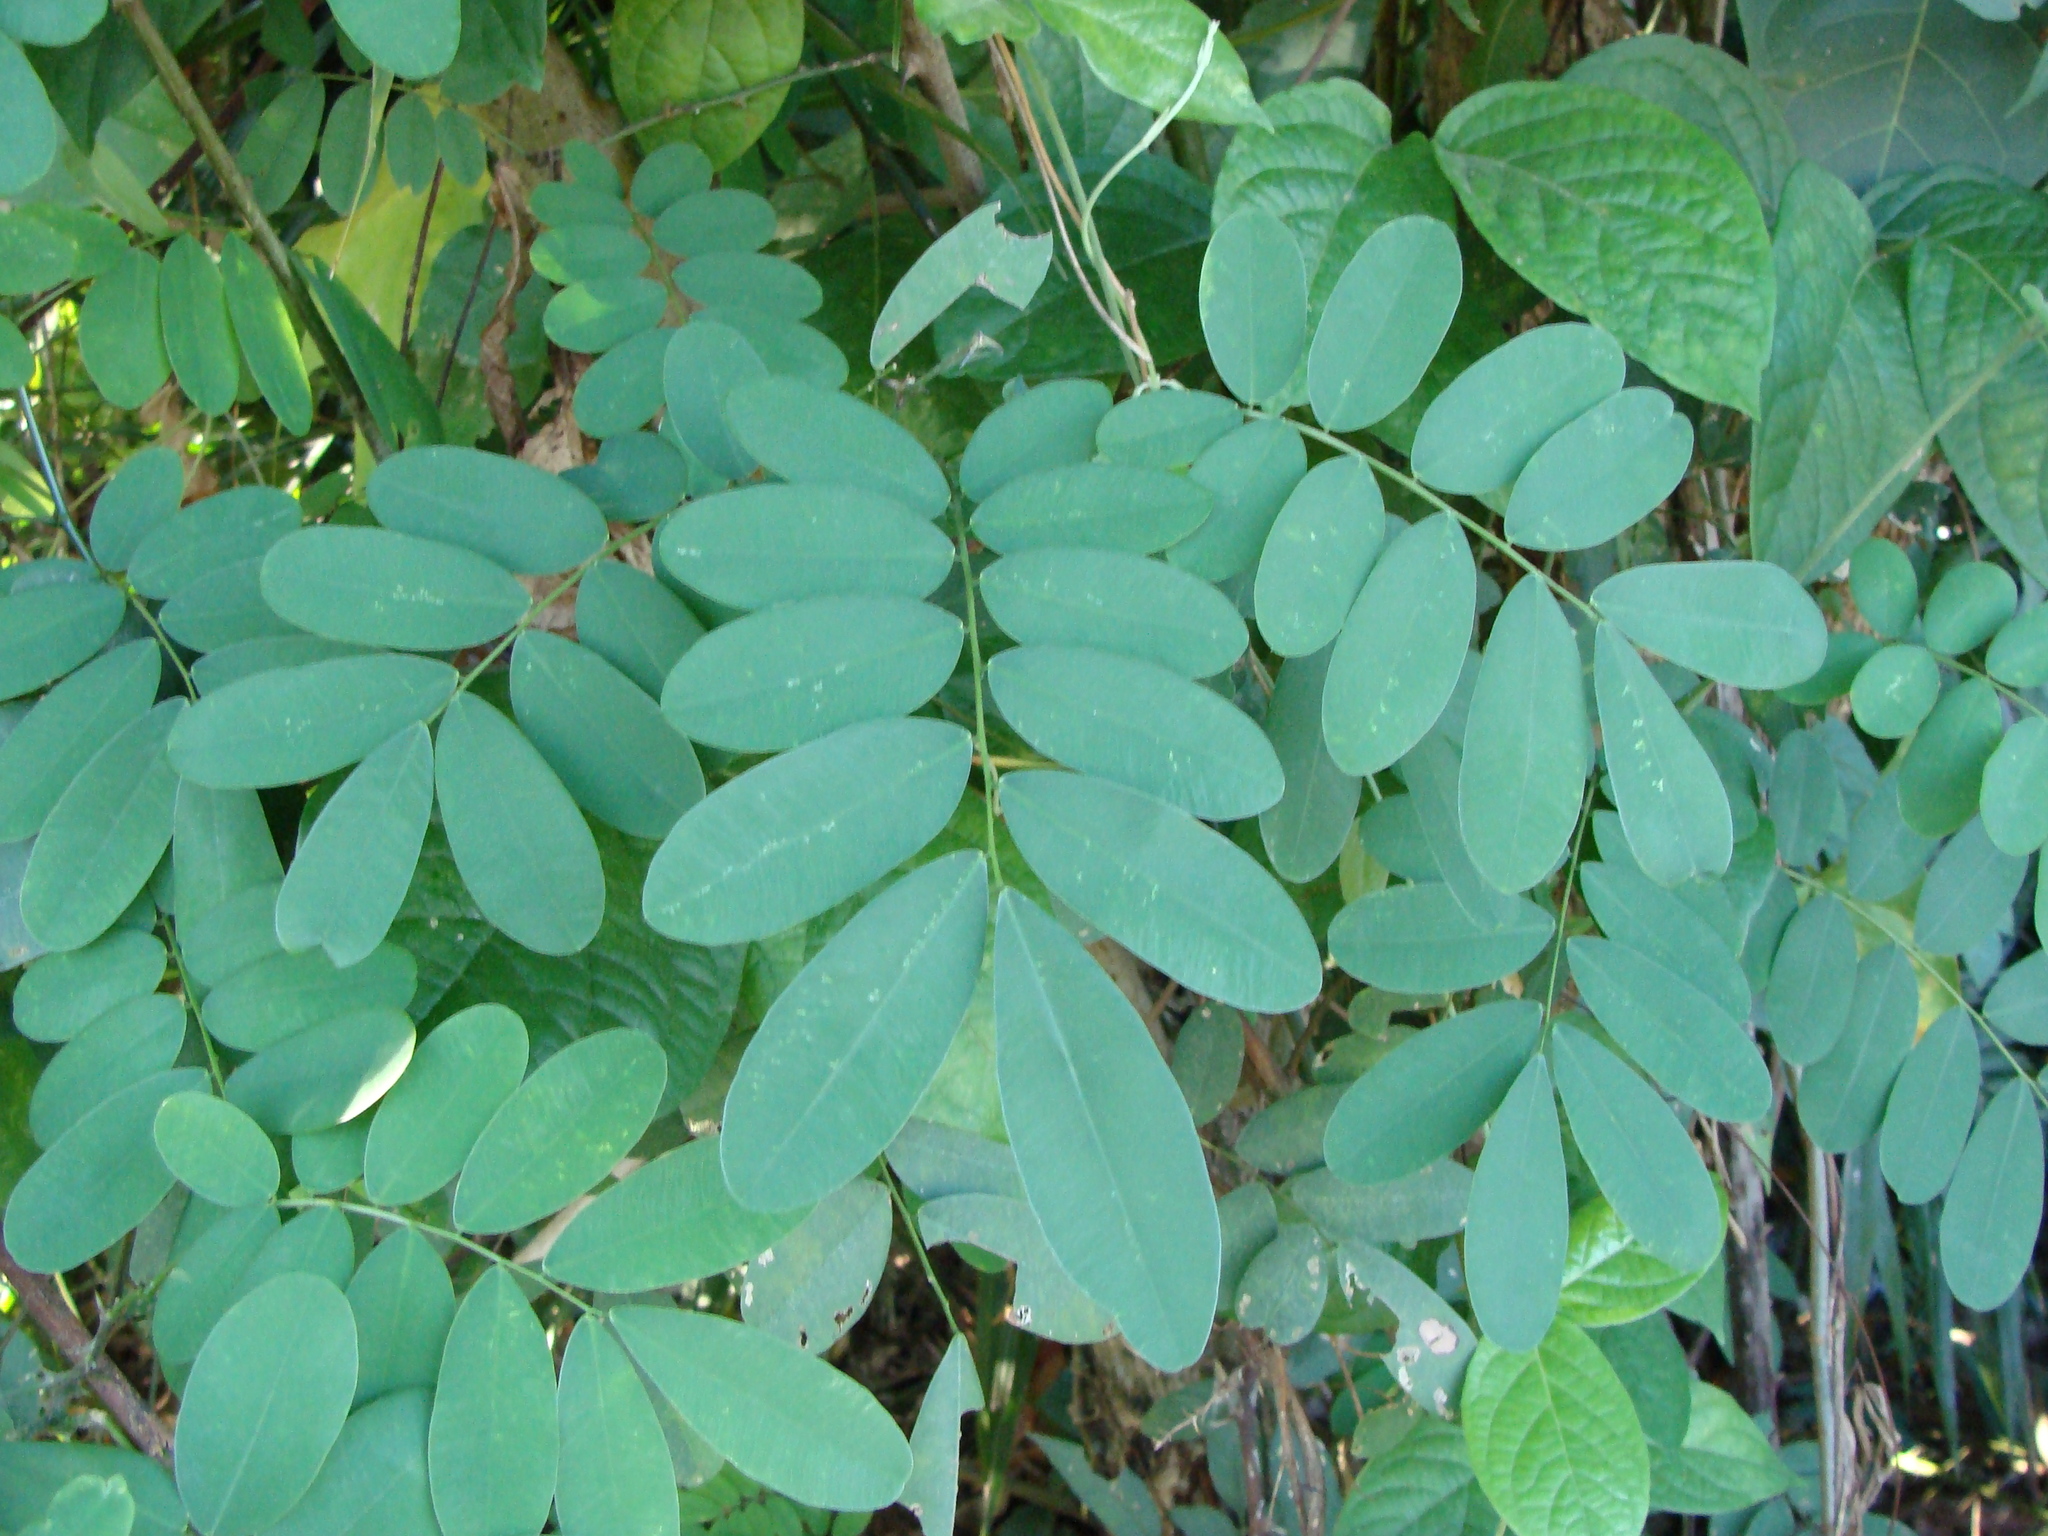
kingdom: Plantae
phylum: Tracheophyta
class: Magnoliopsida
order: Fabales
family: Fabaceae
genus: Machaerium
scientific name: Machaerium riparium
